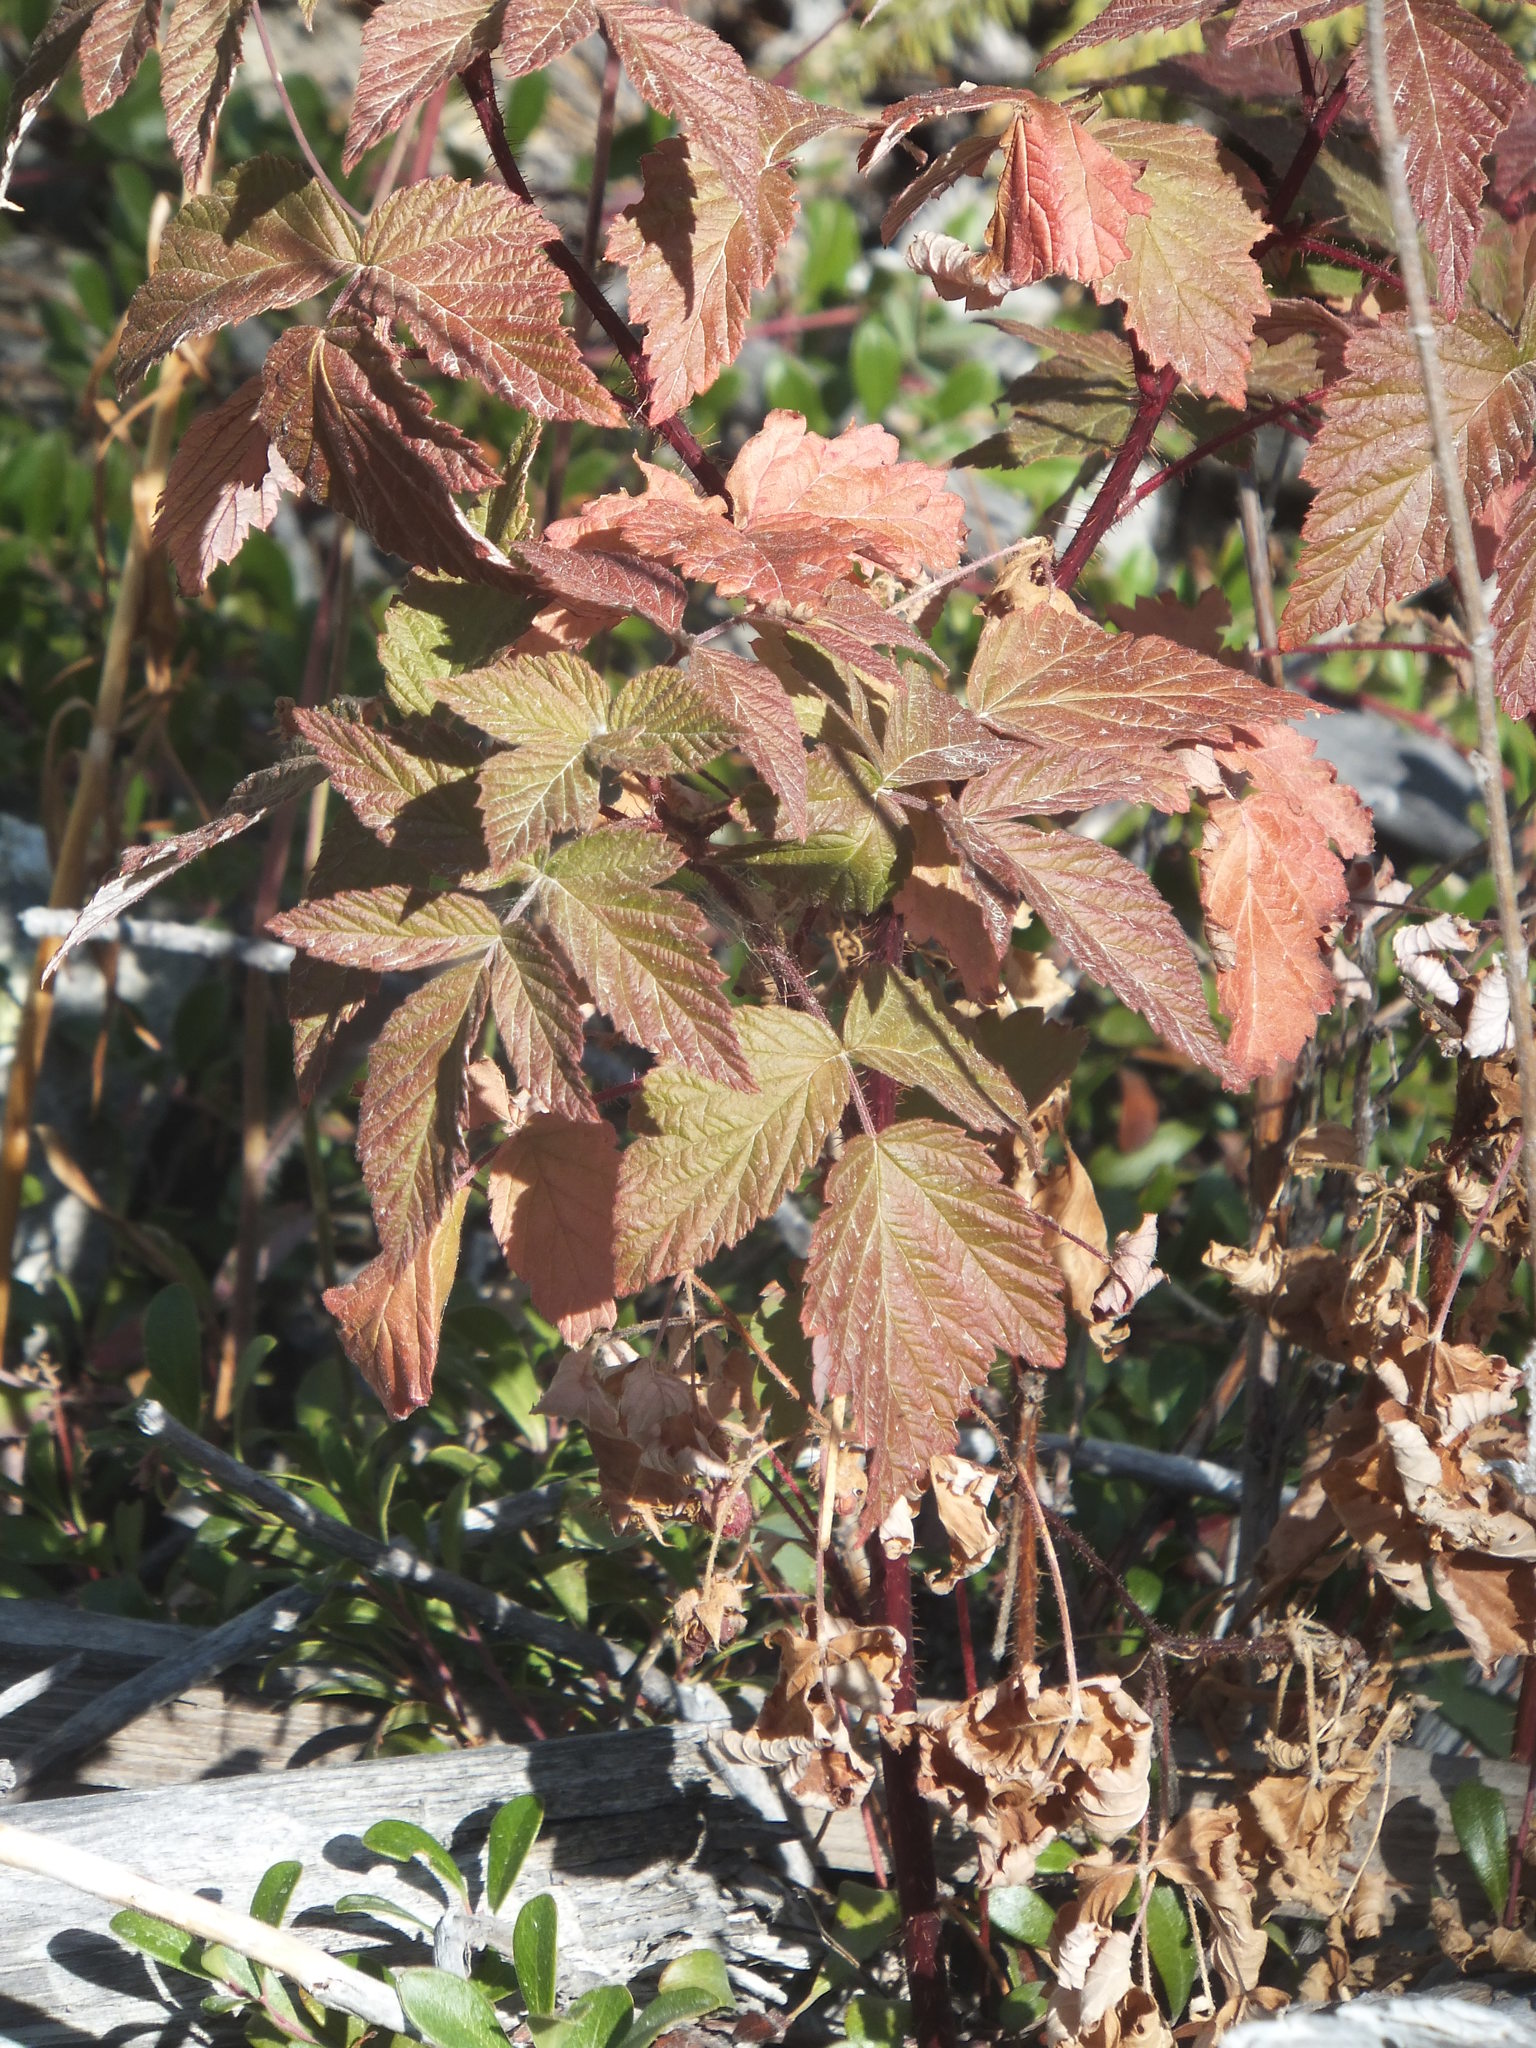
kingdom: Plantae
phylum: Tracheophyta
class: Magnoliopsida
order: Rosales
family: Rosaceae
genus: Rubus
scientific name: Rubus idaeus
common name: Raspberry
